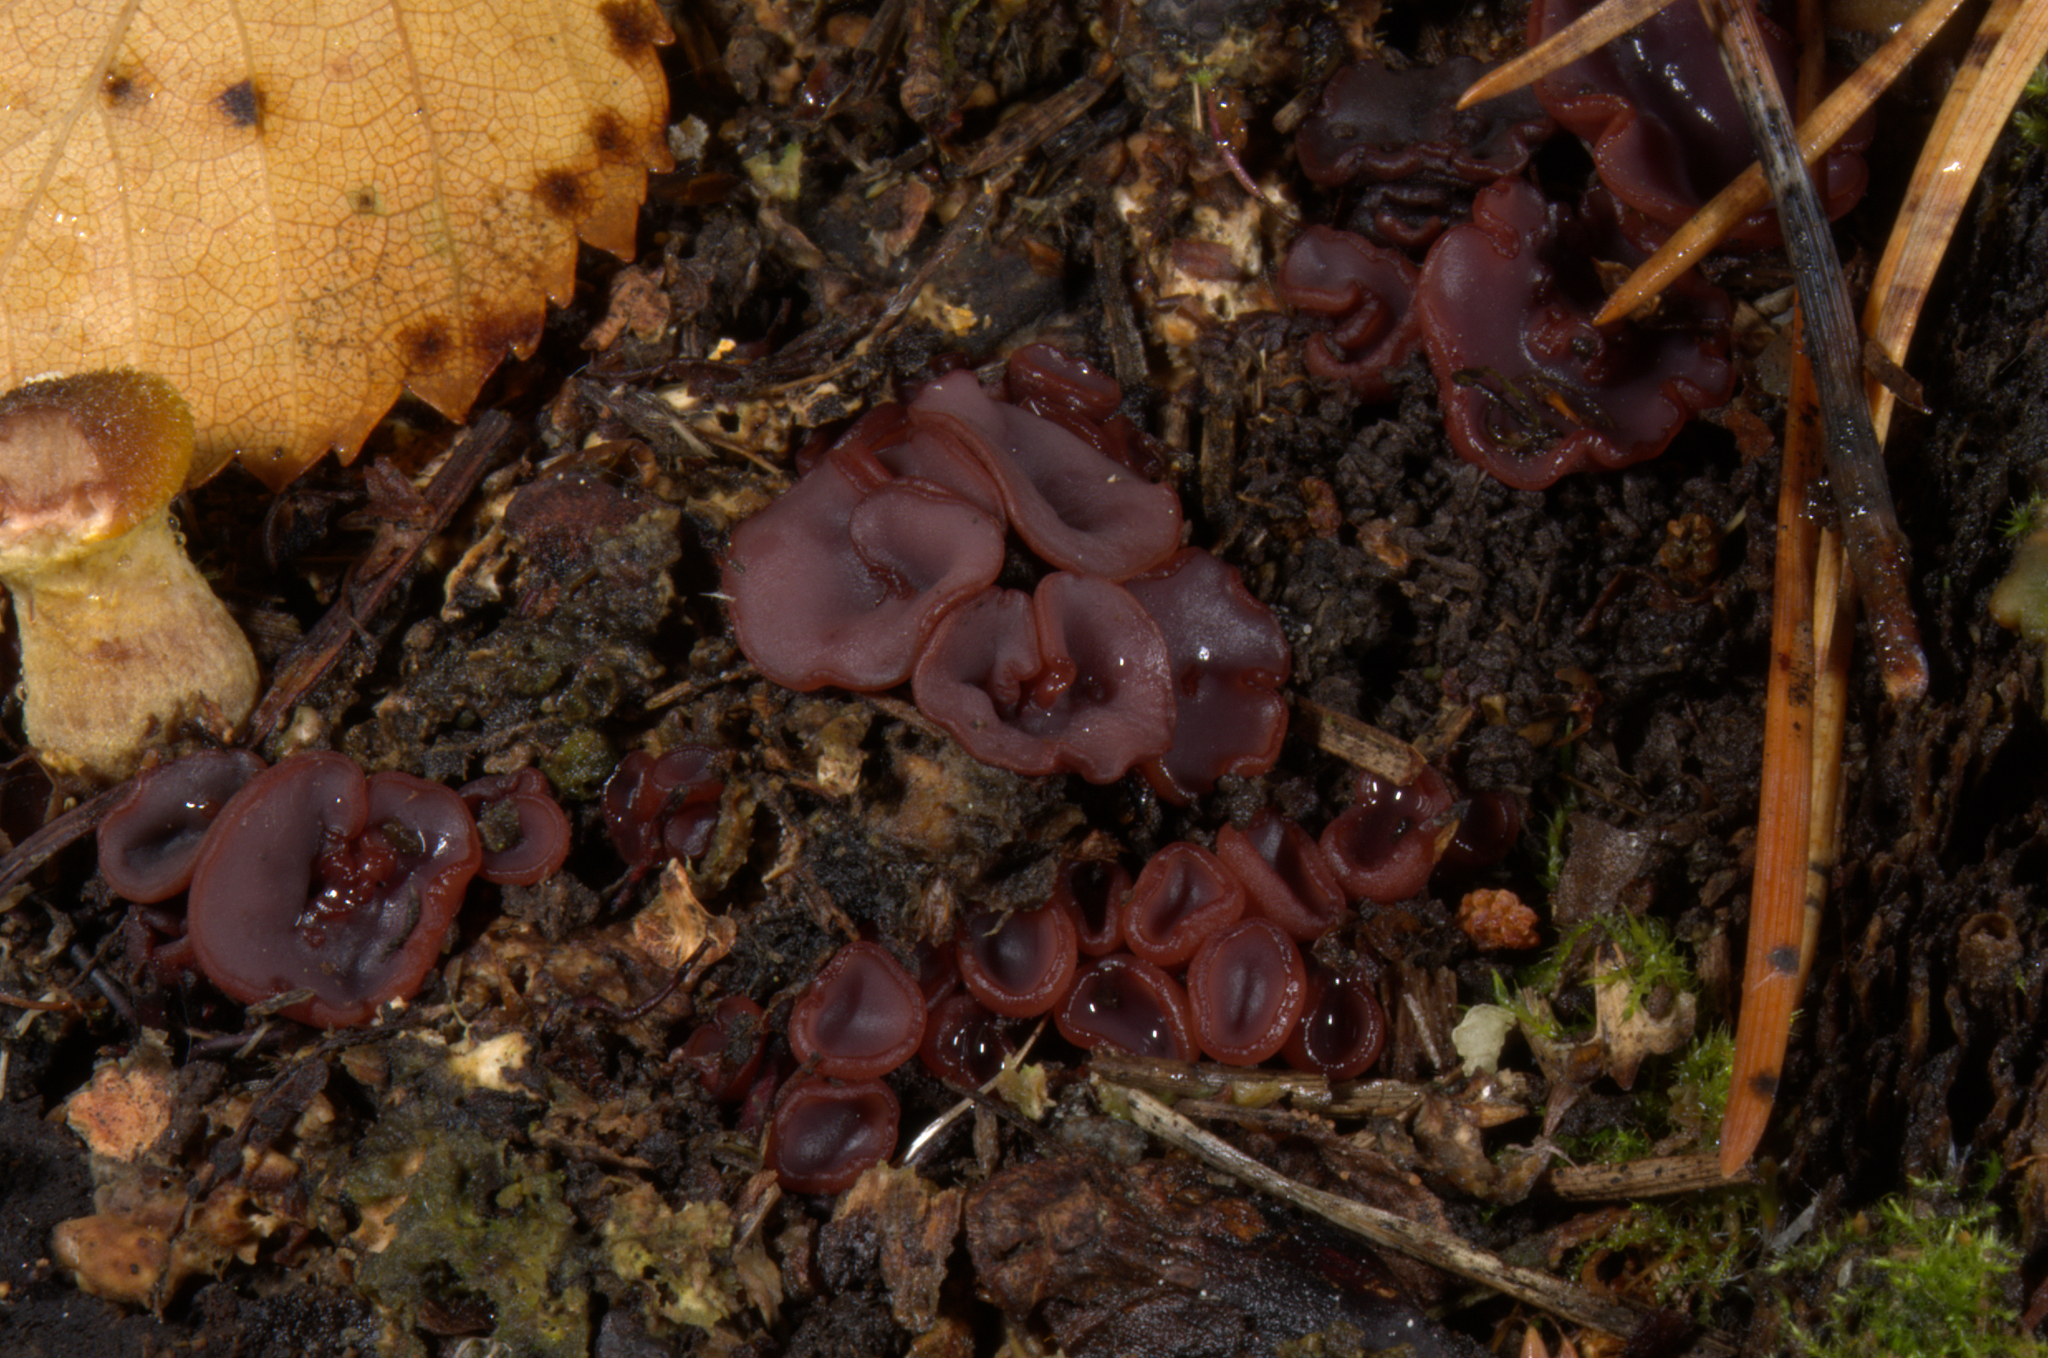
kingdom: Fungi
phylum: Ascomycota
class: Leotiomycetes
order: Helotiales
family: Gelatinodiscaceae
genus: Ascocoryne
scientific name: Ascocoryne cylichnium
